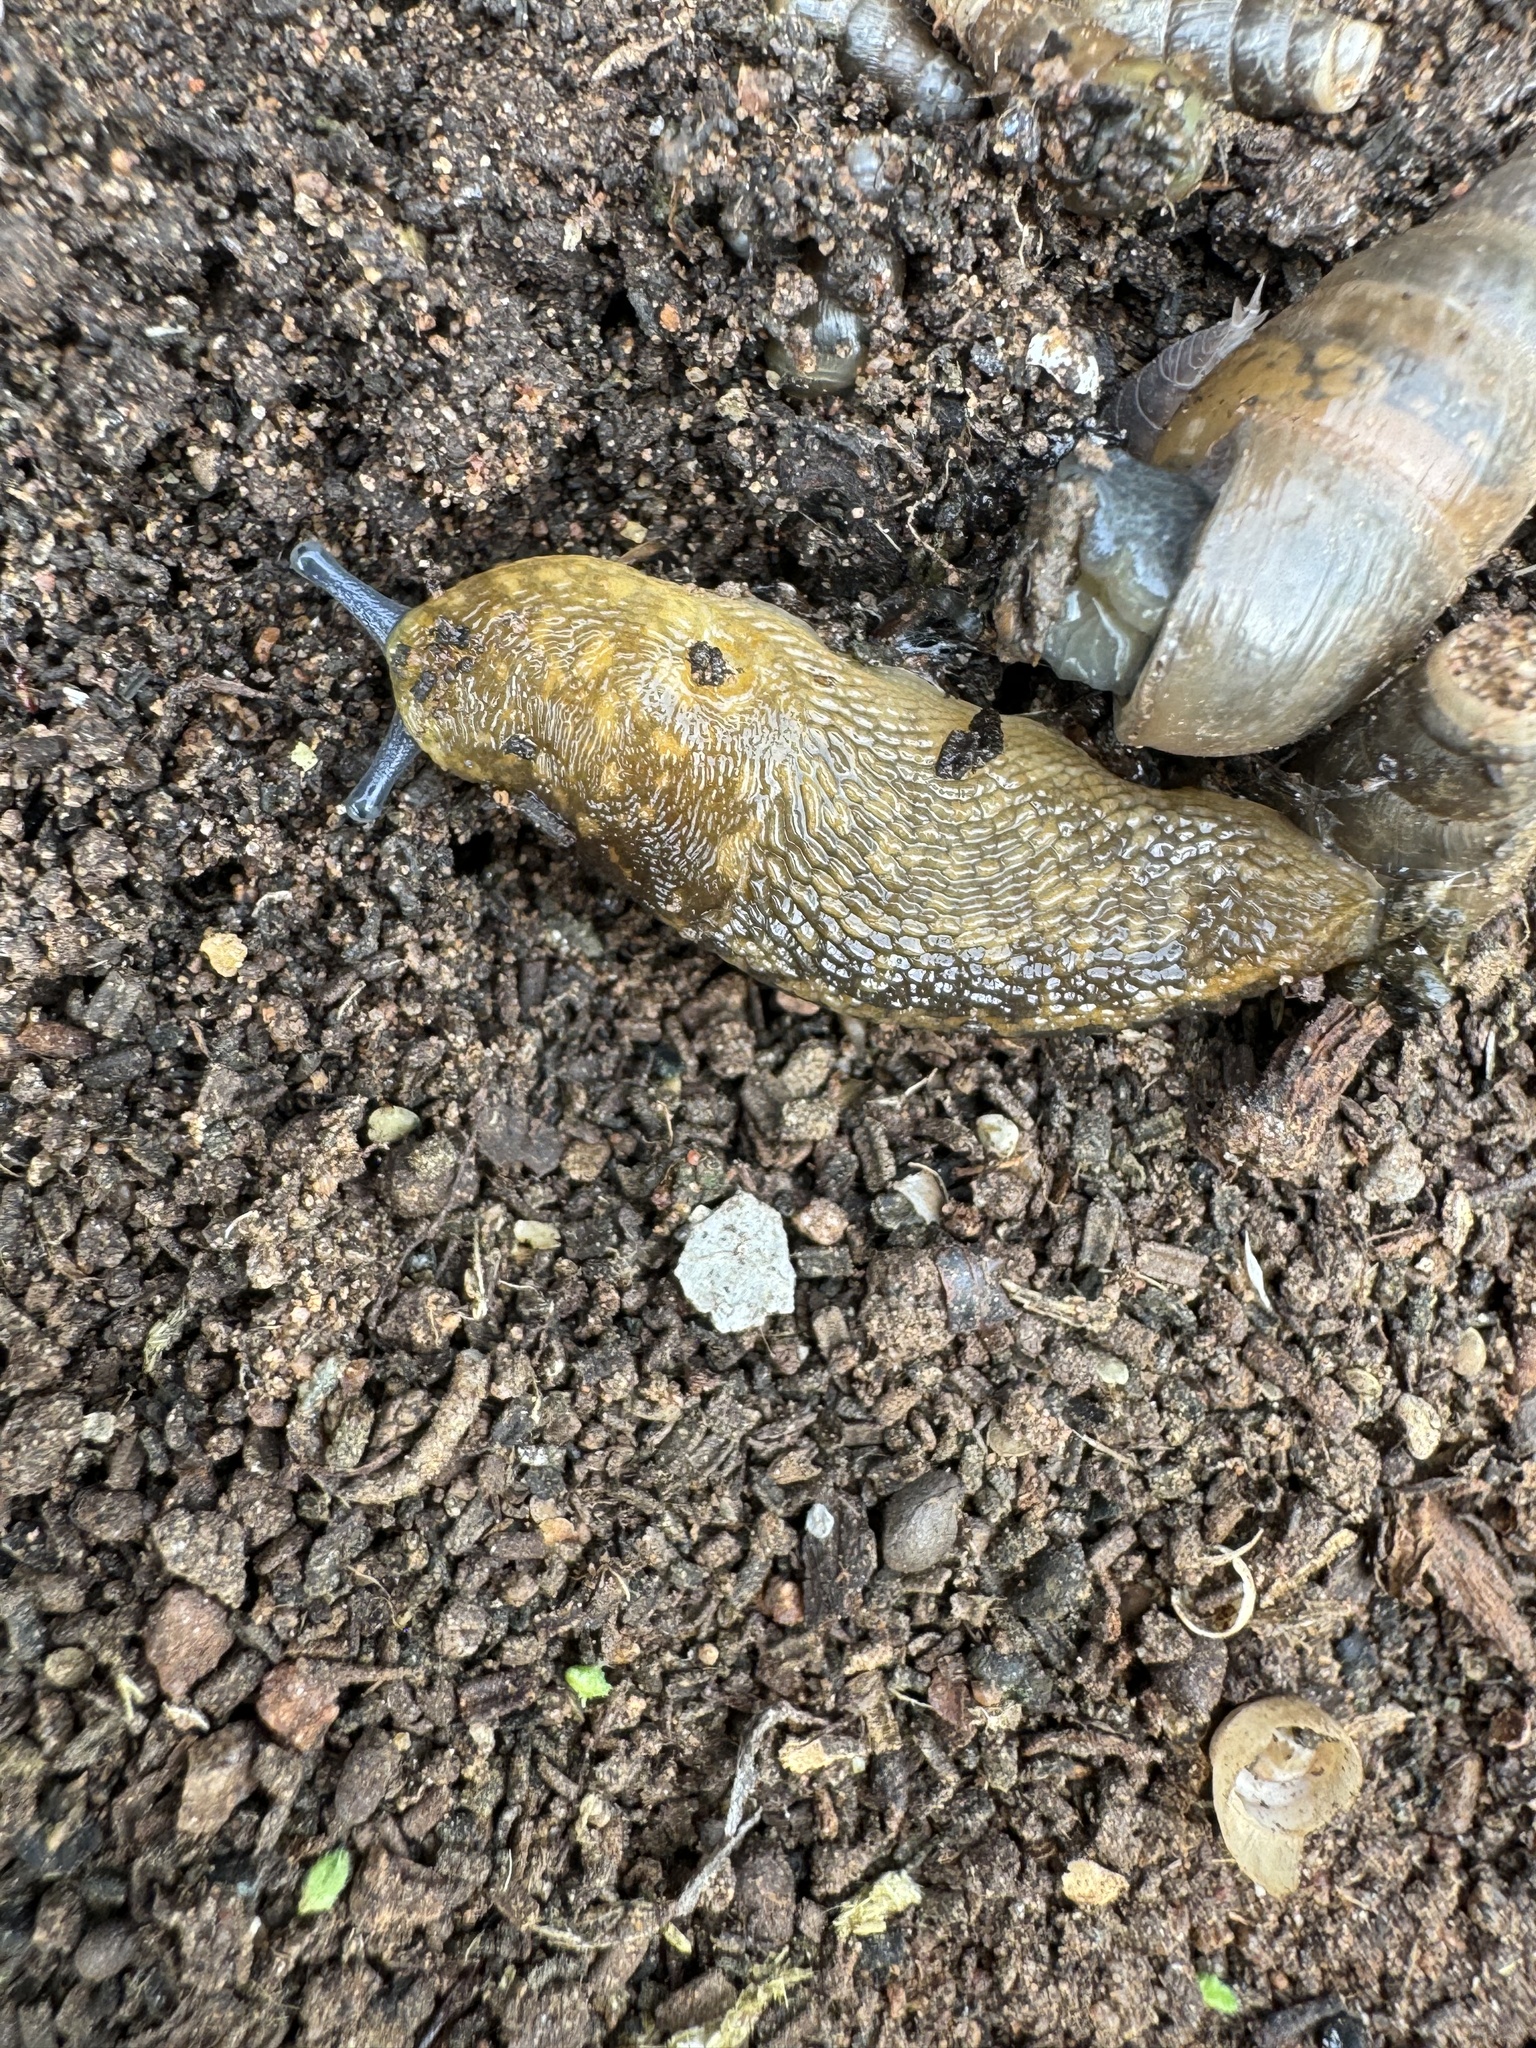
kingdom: Animalia
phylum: Mollusca
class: Gastropoda
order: Stylommatophora
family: Limacidae
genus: Limacus
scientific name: Limacus flavus
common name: Yellow gardenslug
